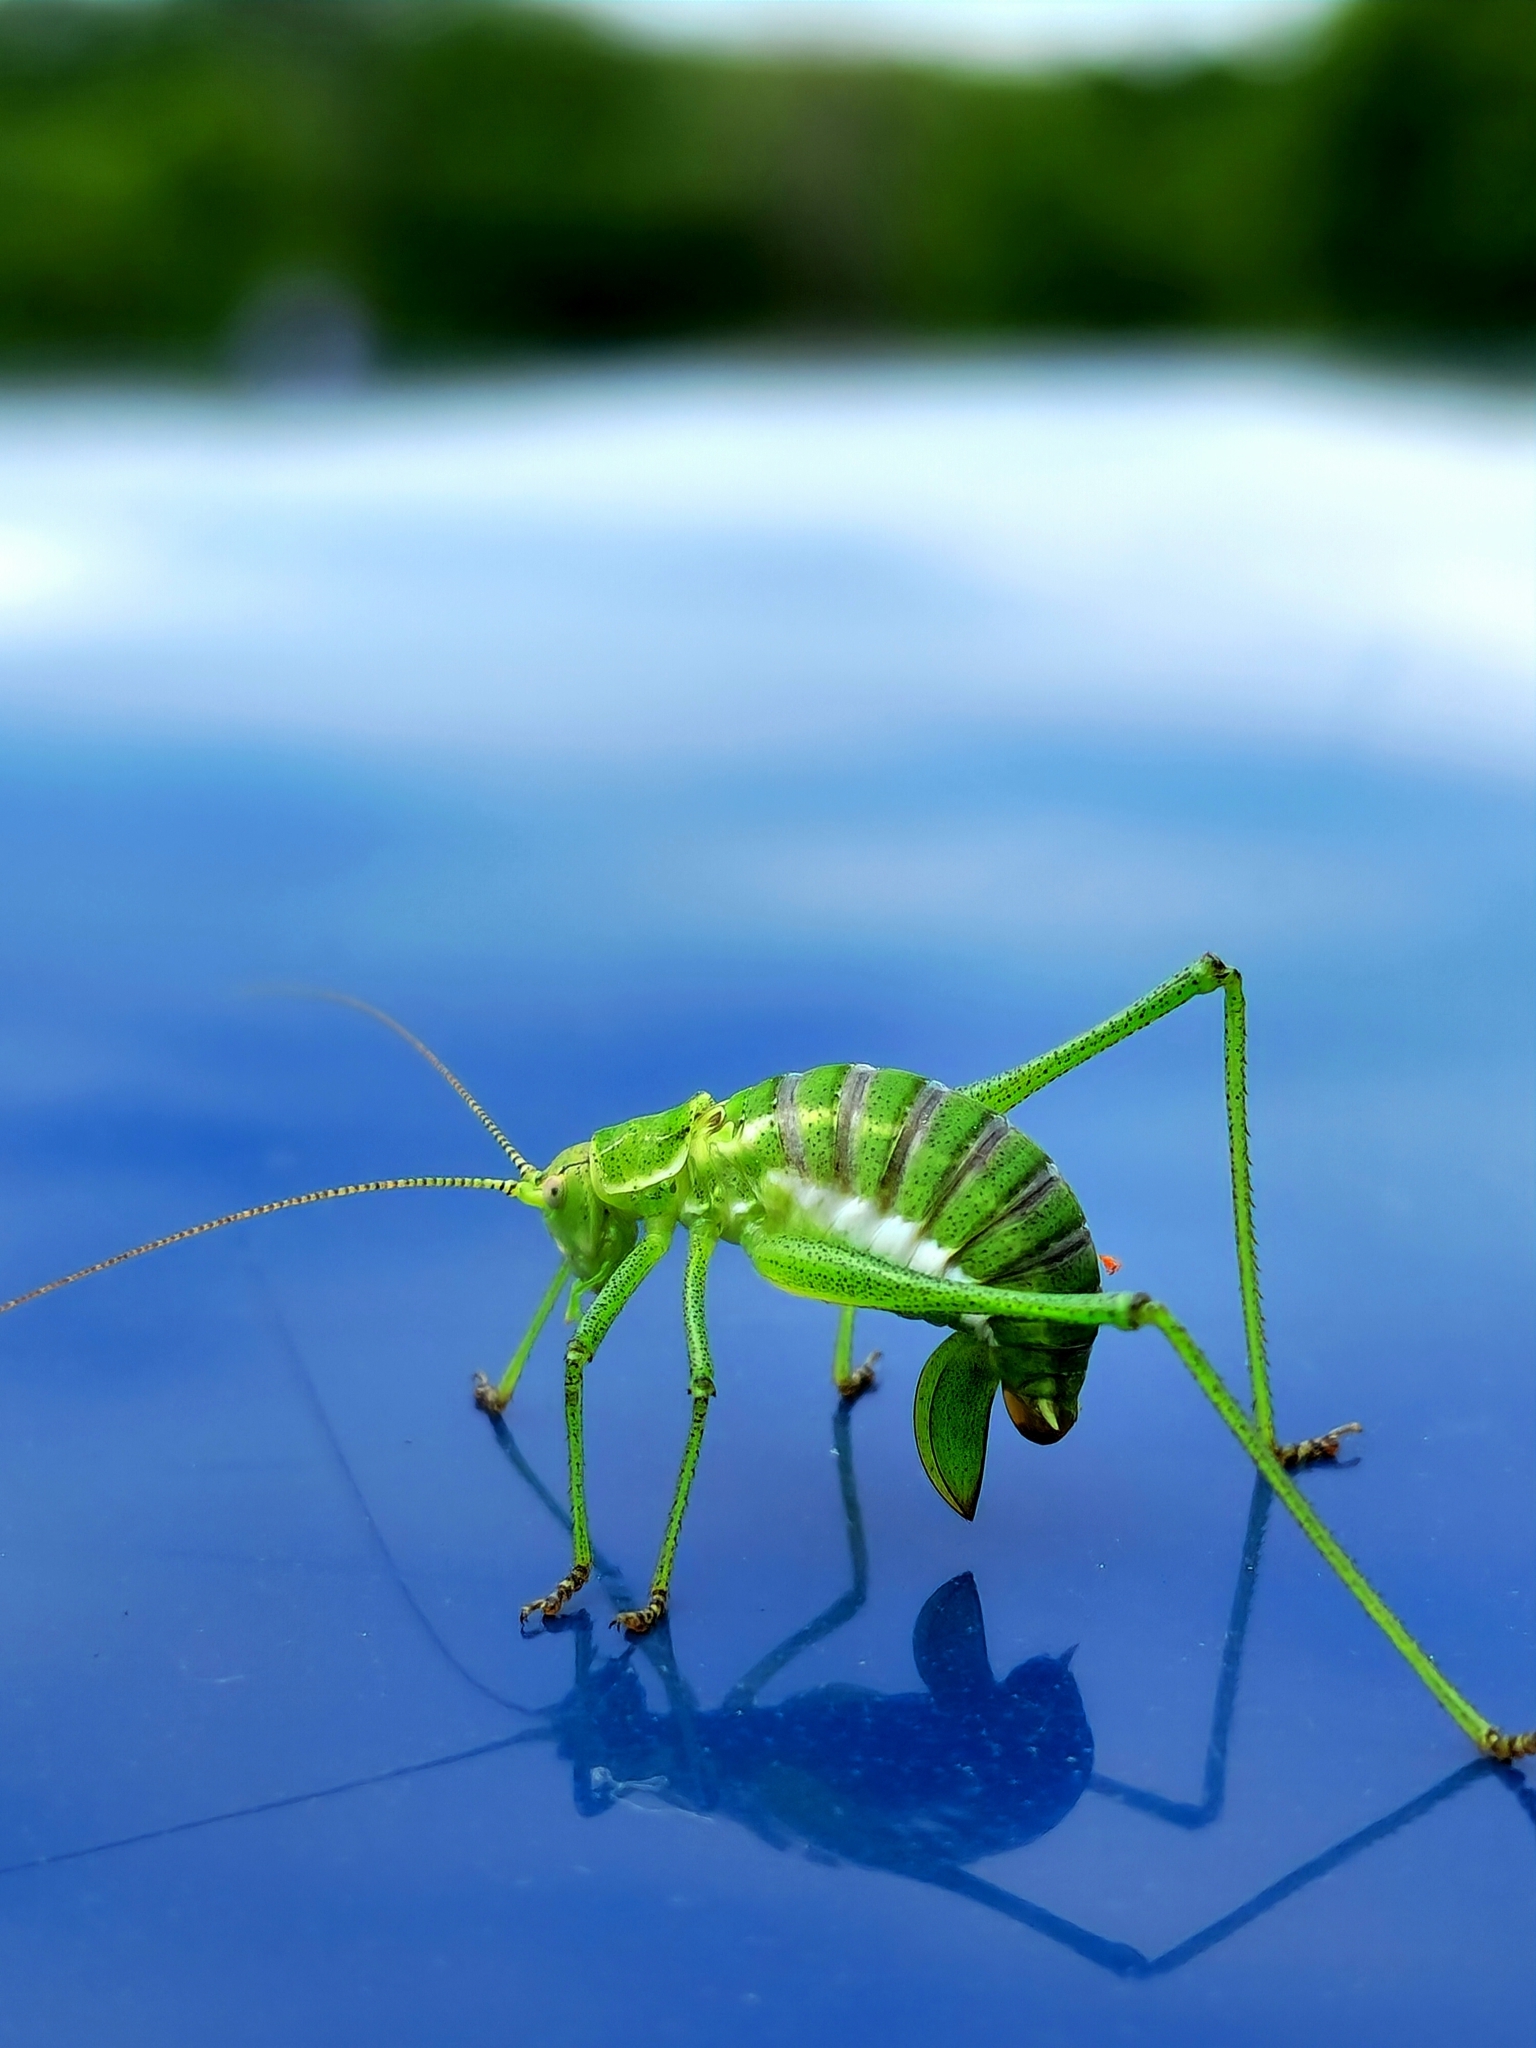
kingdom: Animalia
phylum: Arthropoda
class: Insecta
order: Orthoptera
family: Tettigoniidae
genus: Leptophyes
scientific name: Leptophyes albovittata
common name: Striped bush-cricket
